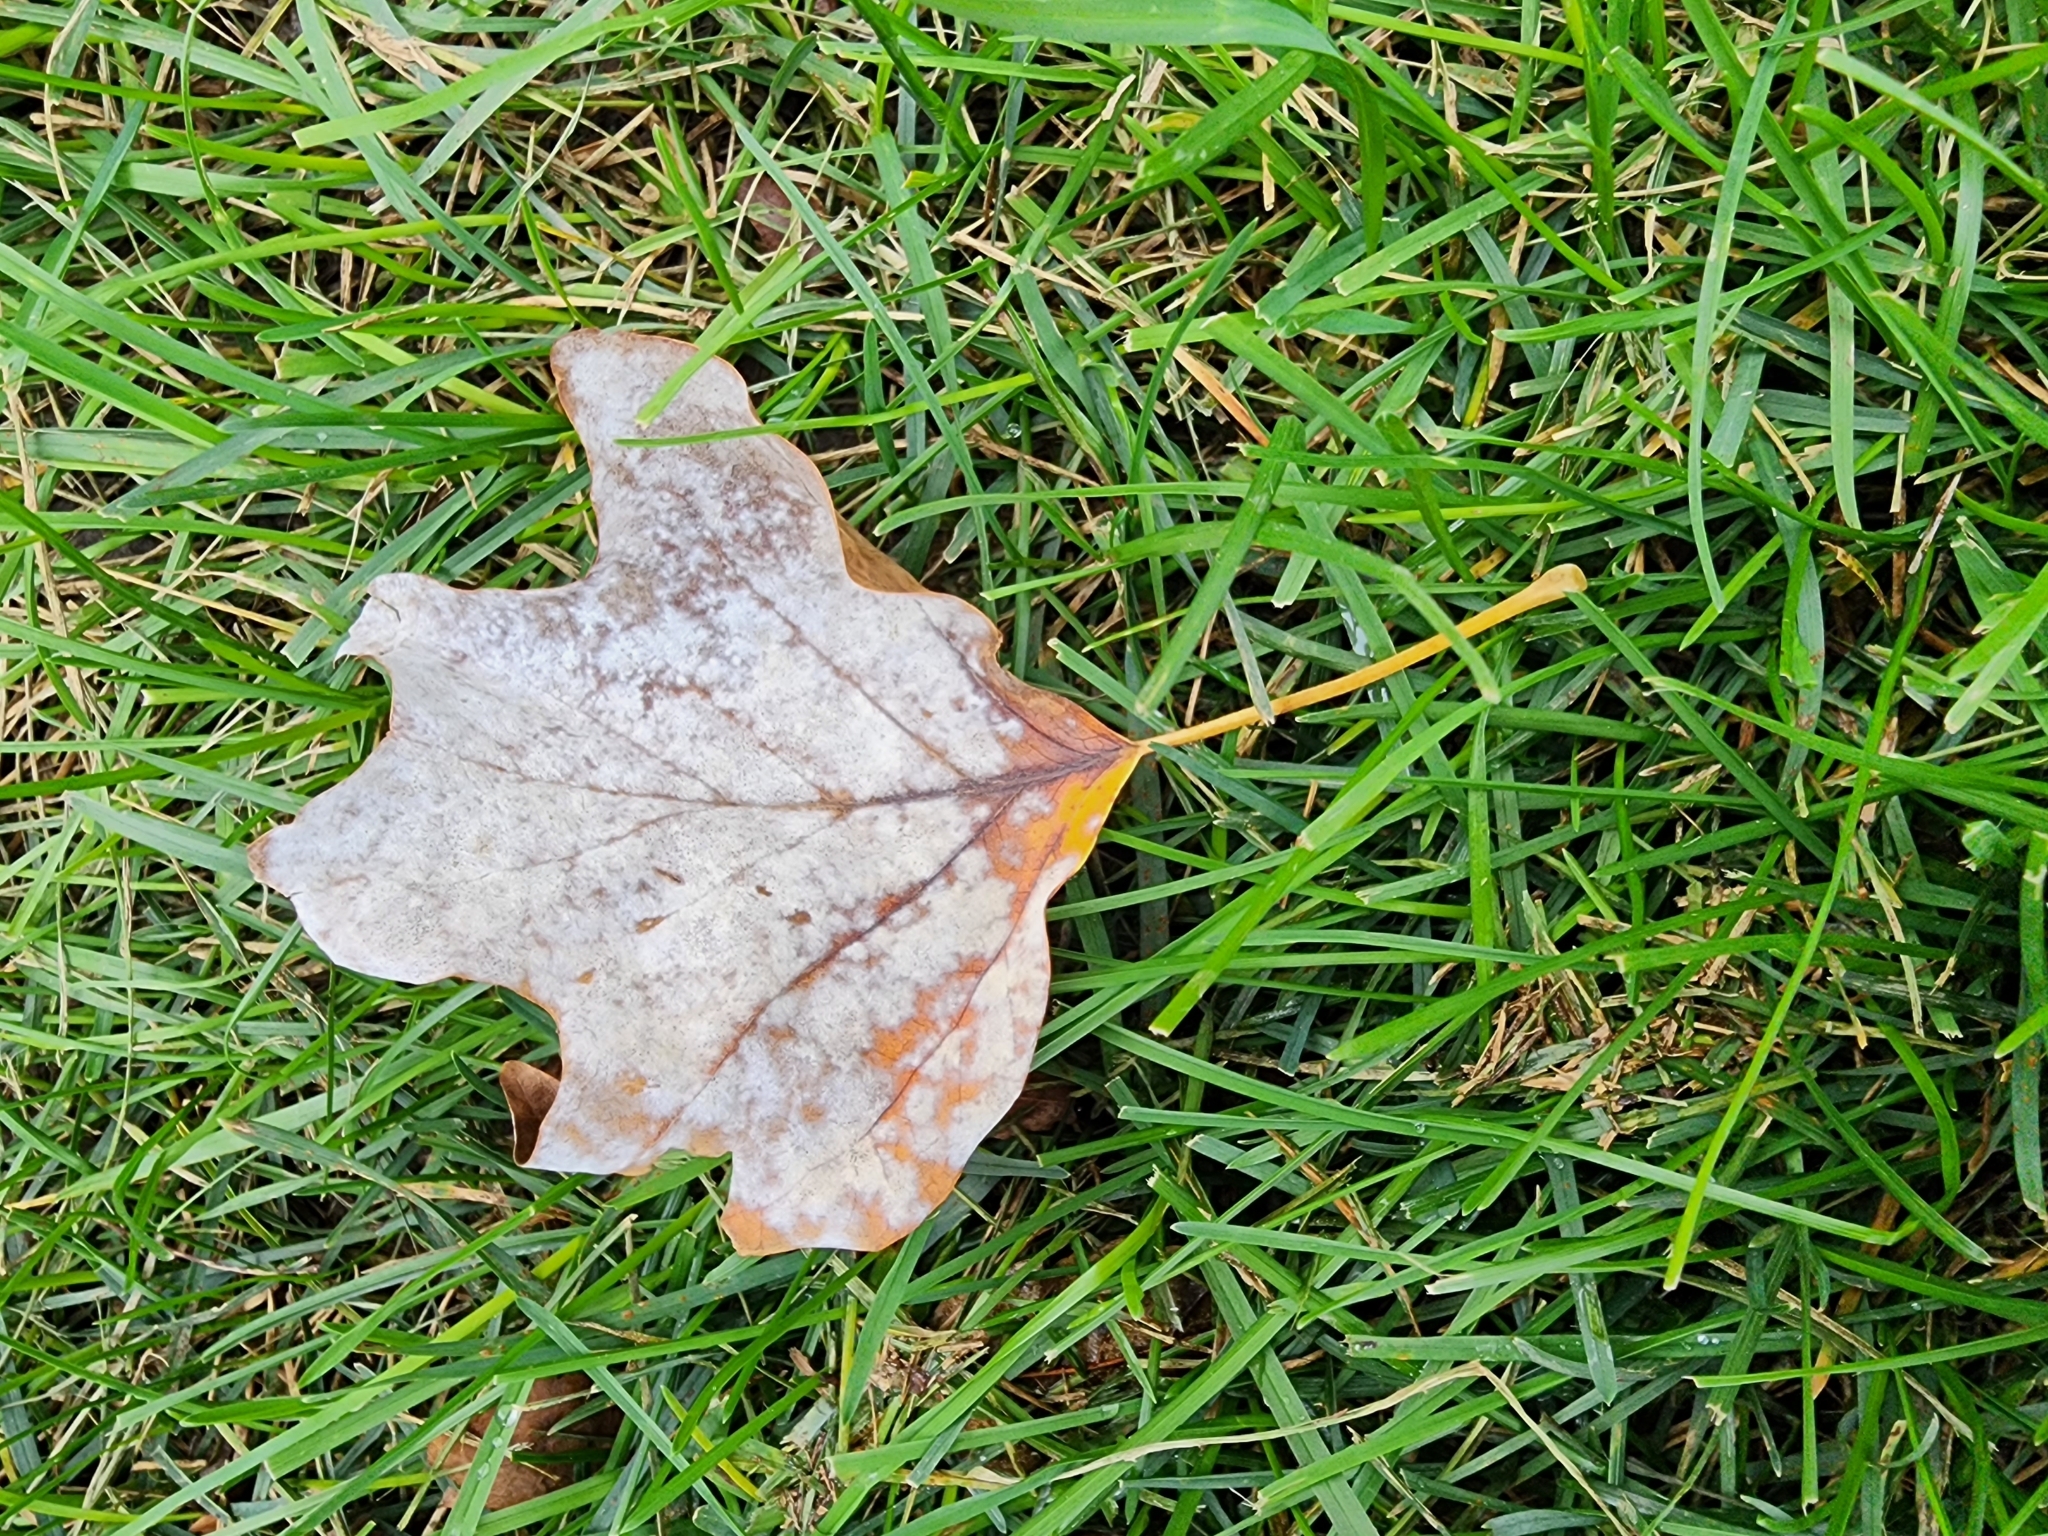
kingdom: Plantae
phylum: Tracheophyta
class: Magnoliopsida
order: Magnoliales
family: Magnoliaceae
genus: Liriodendron
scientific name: Liriodendron tulipifera
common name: Tulip tree
